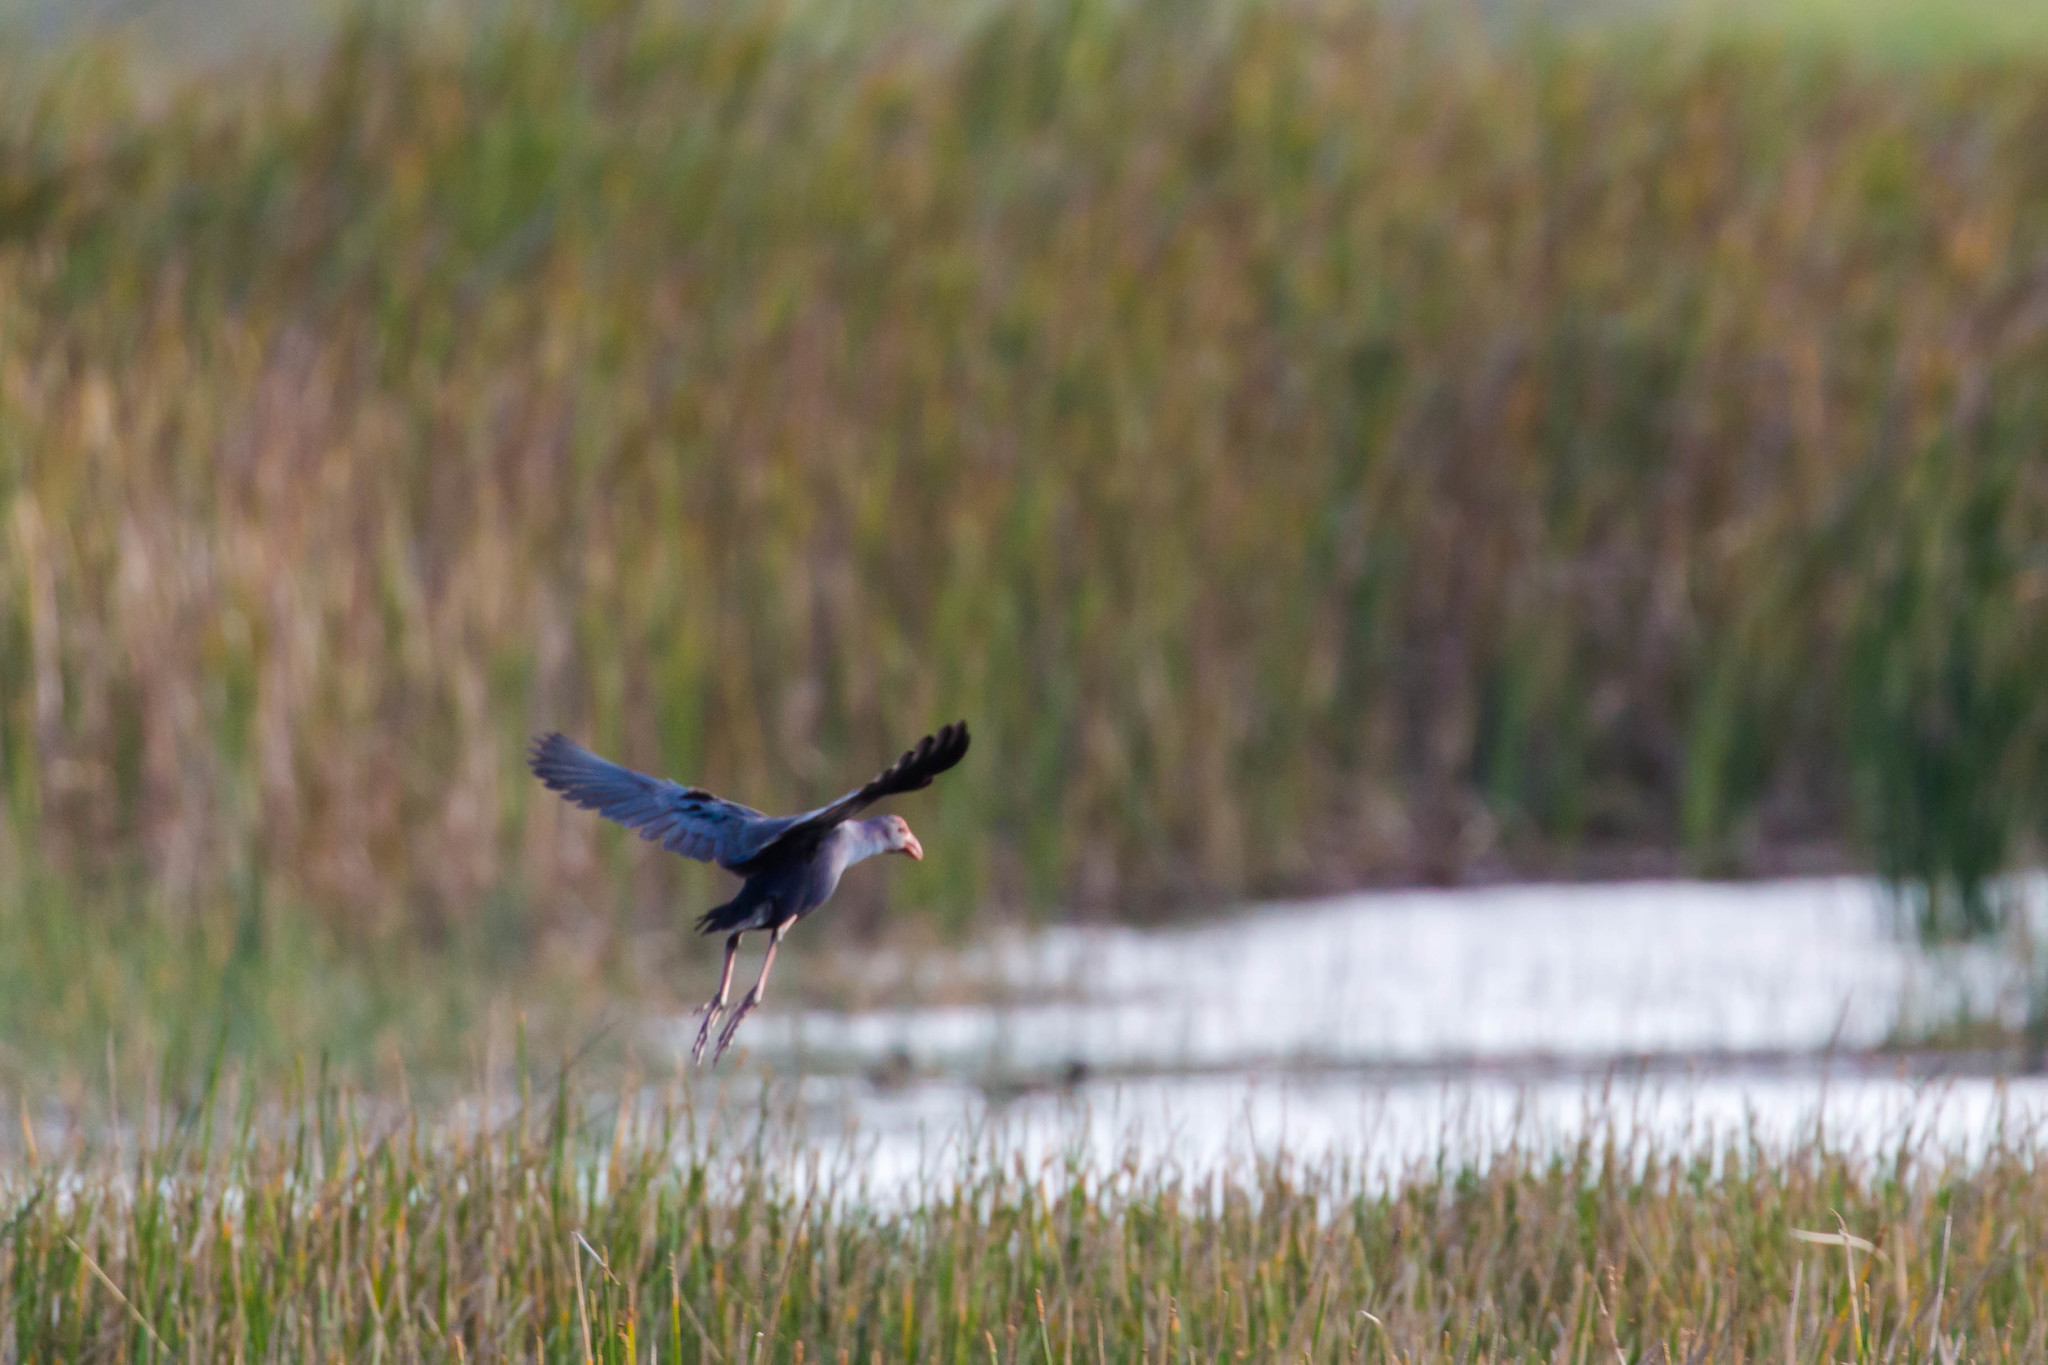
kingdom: Animalia
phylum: Chordata
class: Aves
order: Gruiformes
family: Rallidae
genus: Porphyrio
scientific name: Porphyrio porphyrio
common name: Purple swamphen
